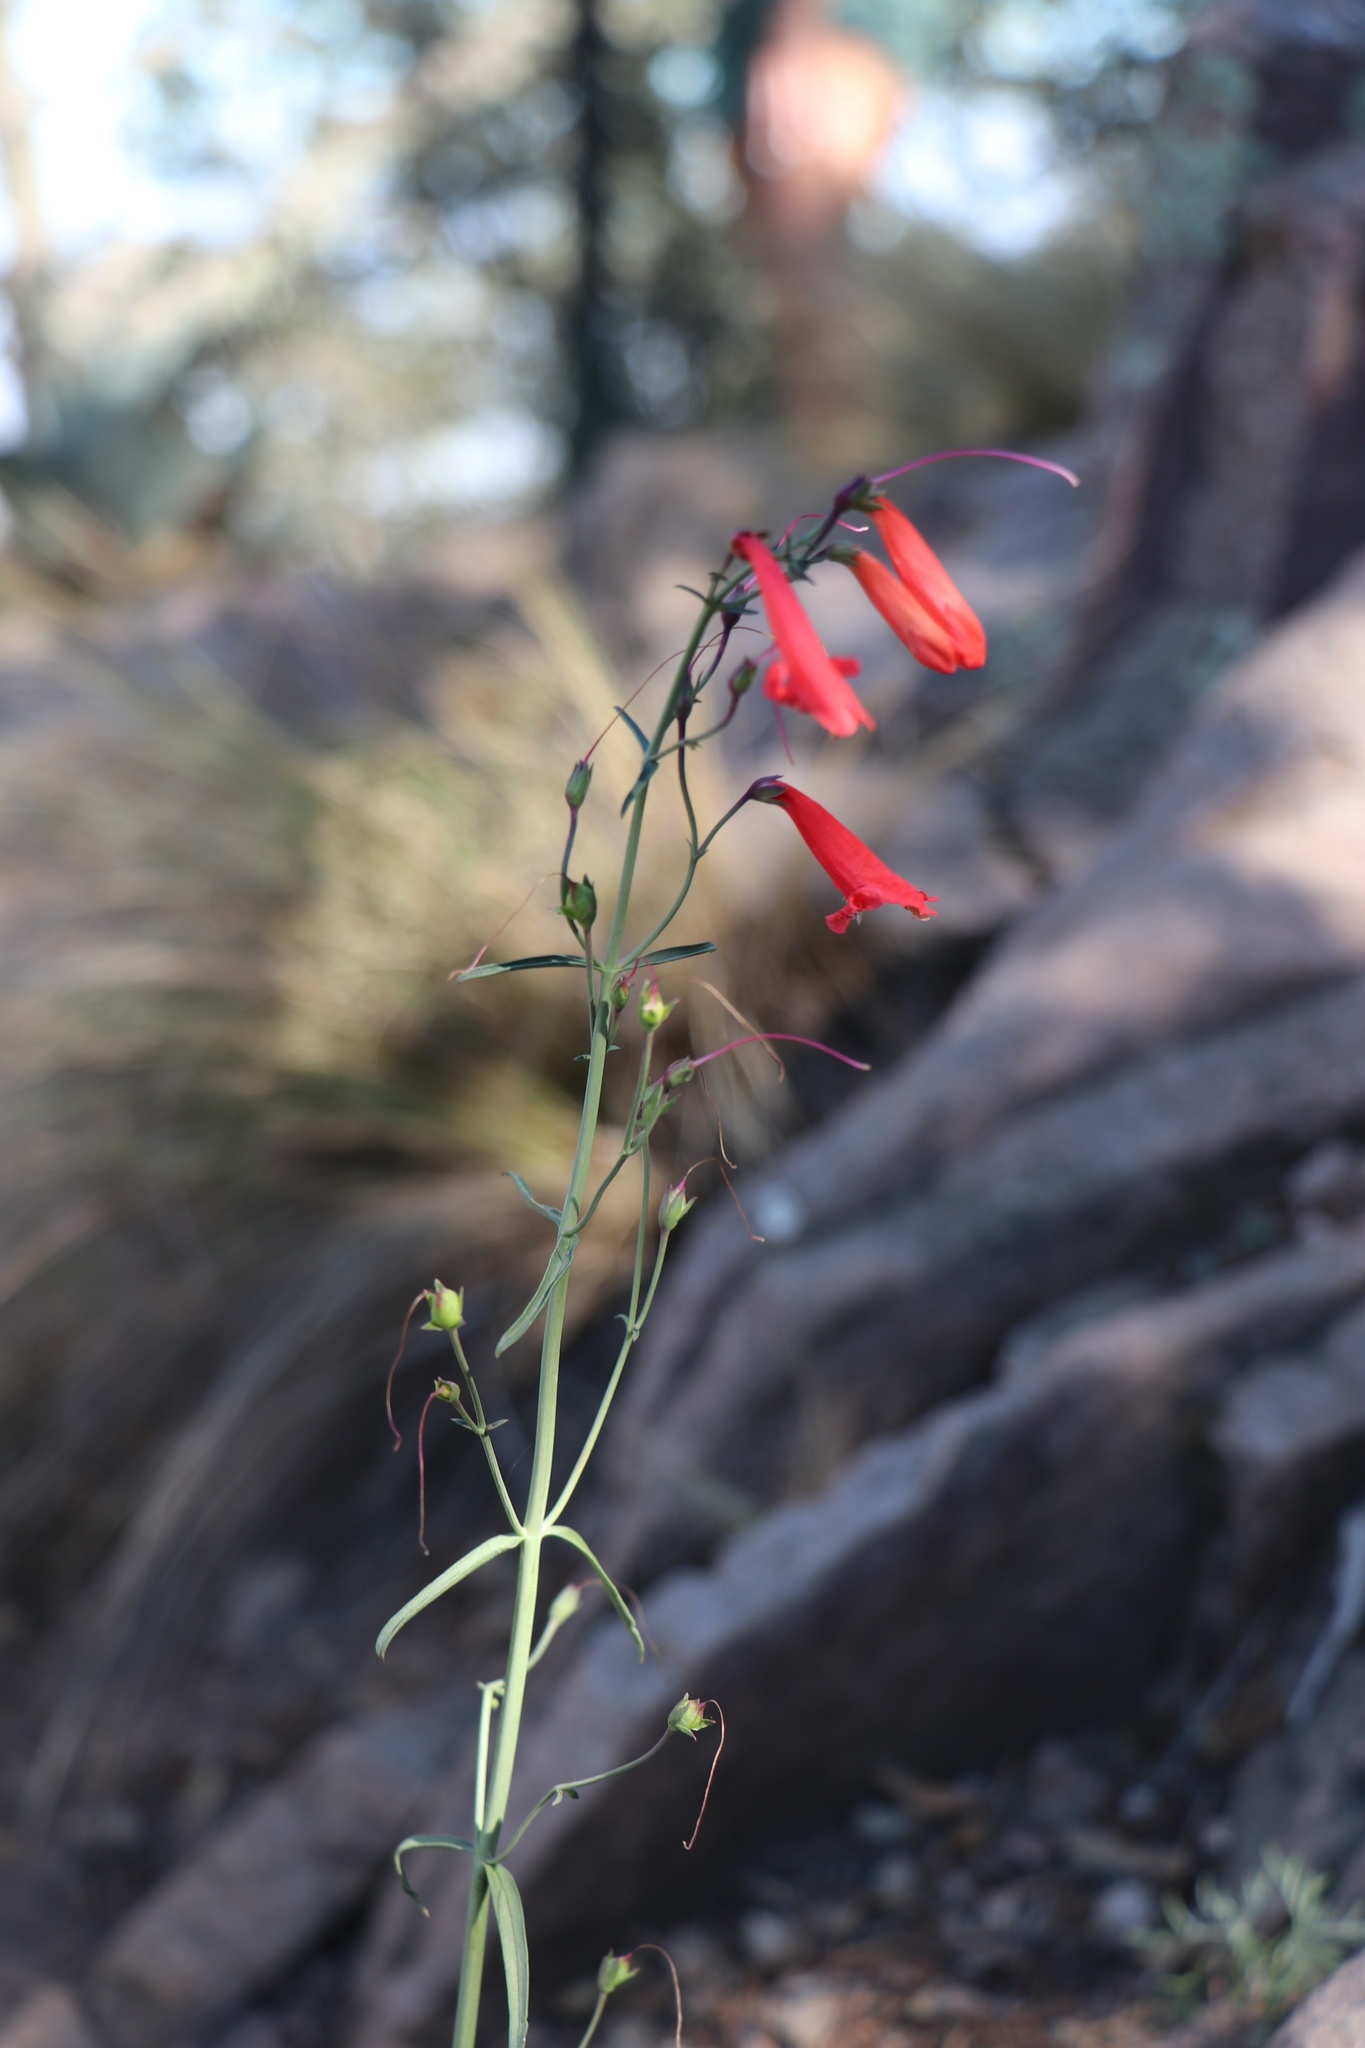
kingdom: Plantae
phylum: Tracheophyta
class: Magnoliopsida
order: Lamiales
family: Plantaginaceae
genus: Penstemon
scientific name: Penstemon barbatus
